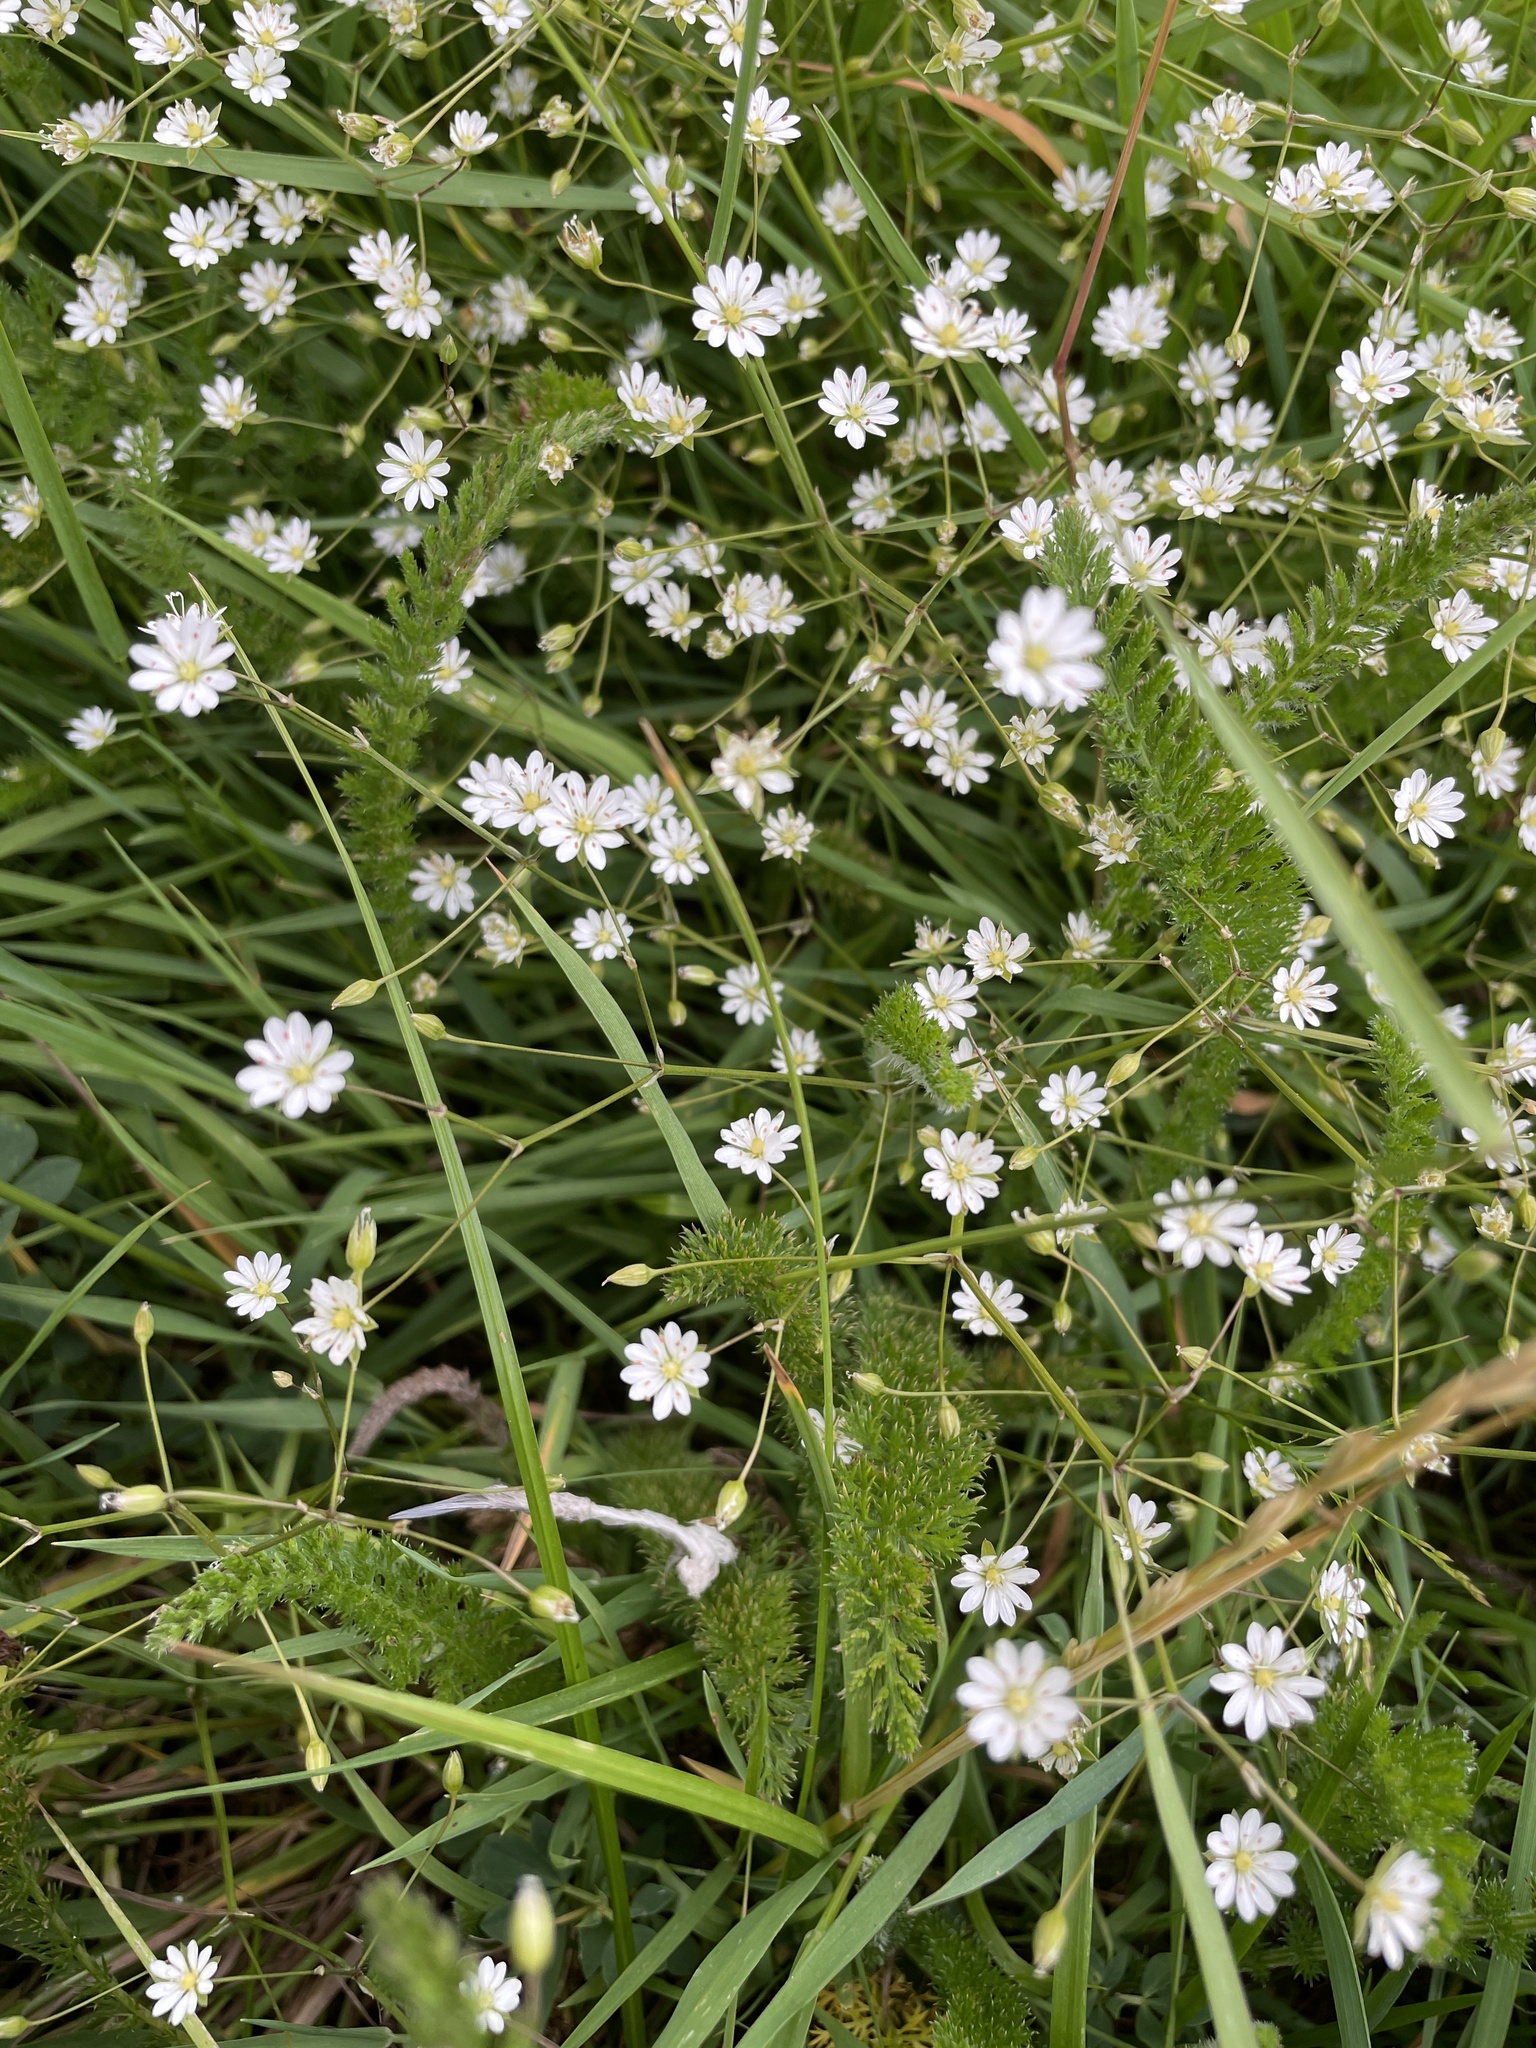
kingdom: Plantae
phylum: Tracheophyta
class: Magnoliopsida
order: Caryophyllales
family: Caryophyllaceae
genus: Stellaria
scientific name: Stellaria graminea
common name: Grass-like starwort
